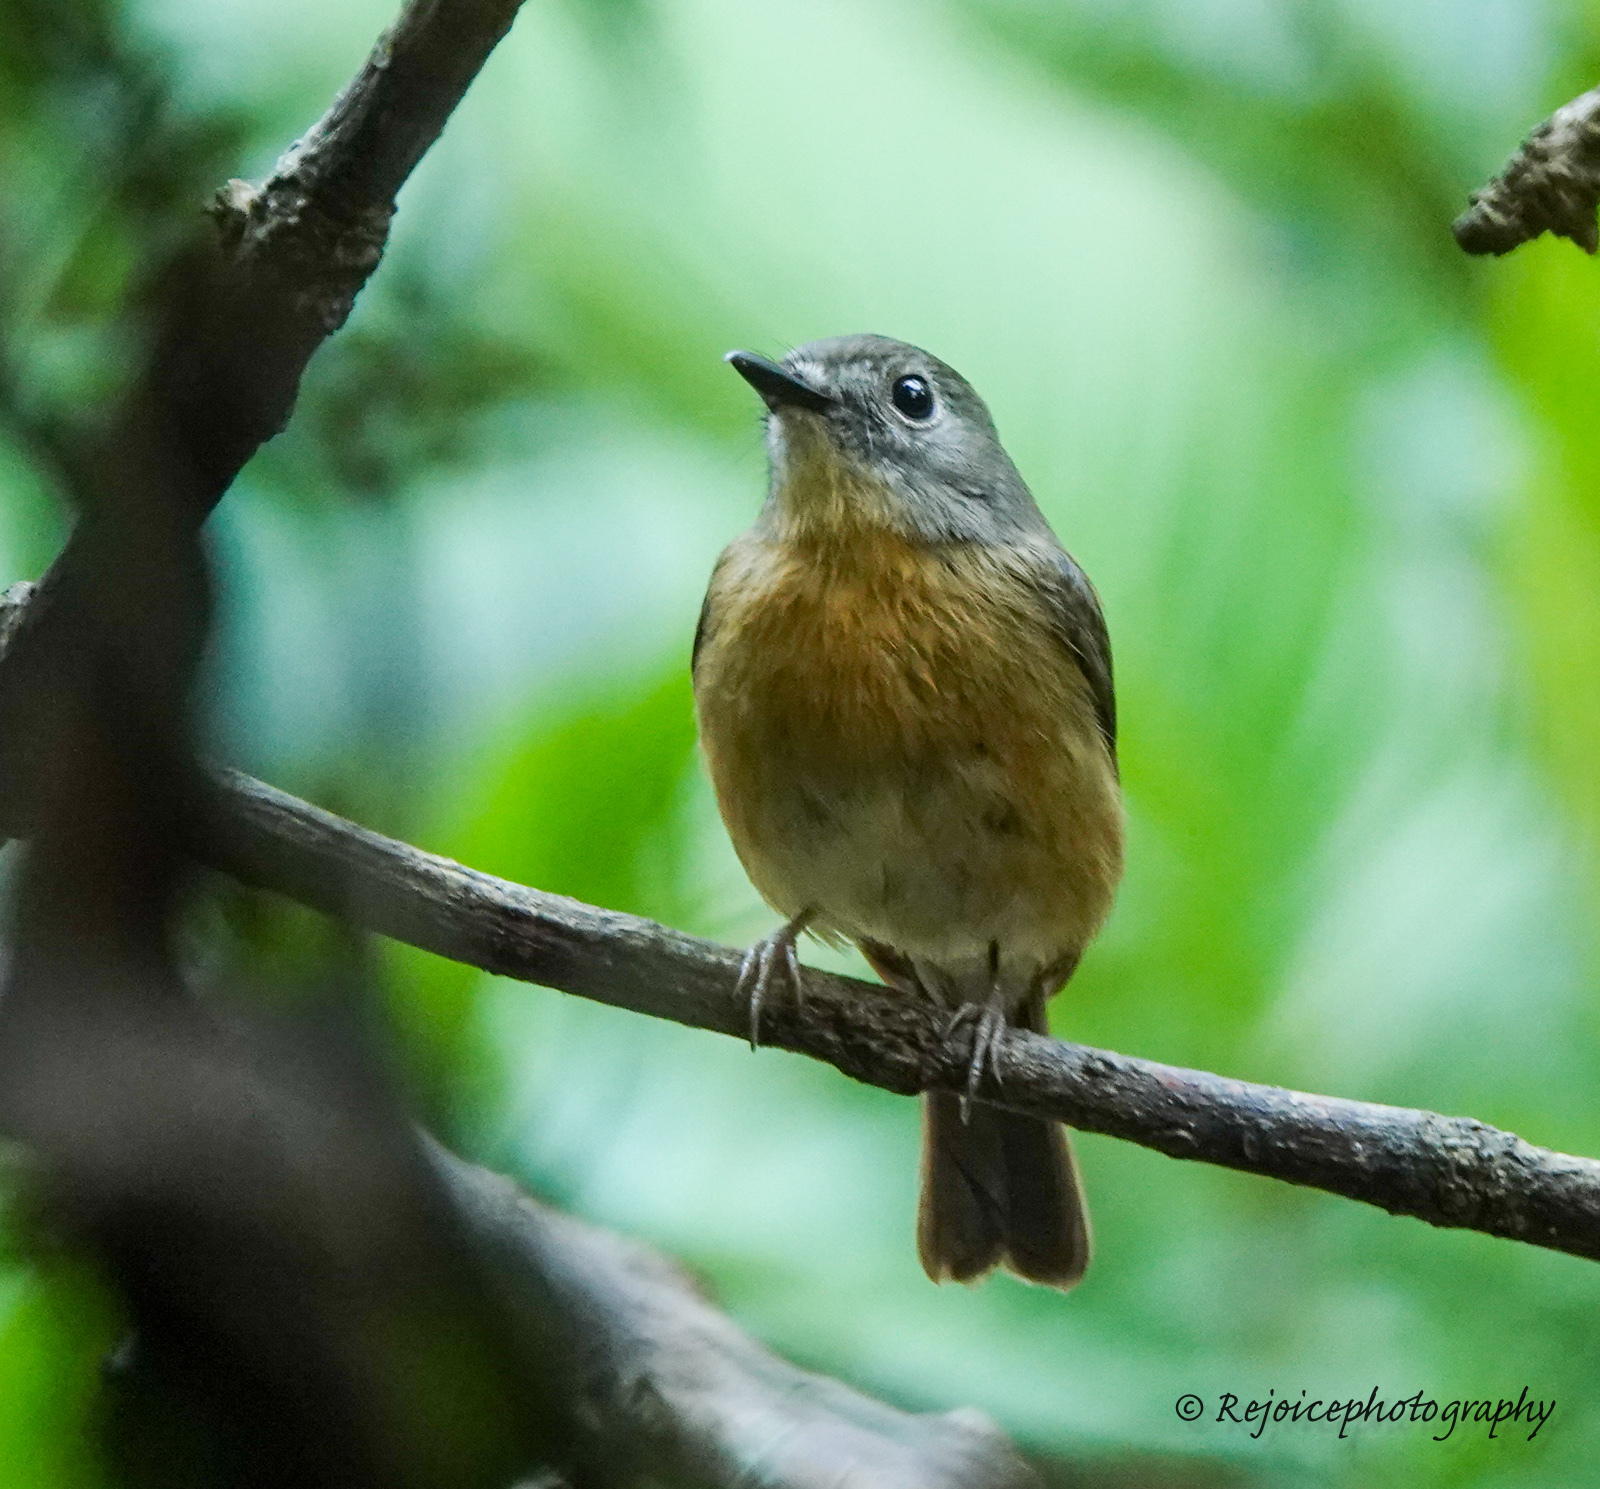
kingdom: Animalia
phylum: Chordata
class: Aves
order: Passeriformes
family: Muscicapidae
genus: Cyornis
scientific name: Cyornis poliogenys
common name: Pale-chinned blue flycatcher
